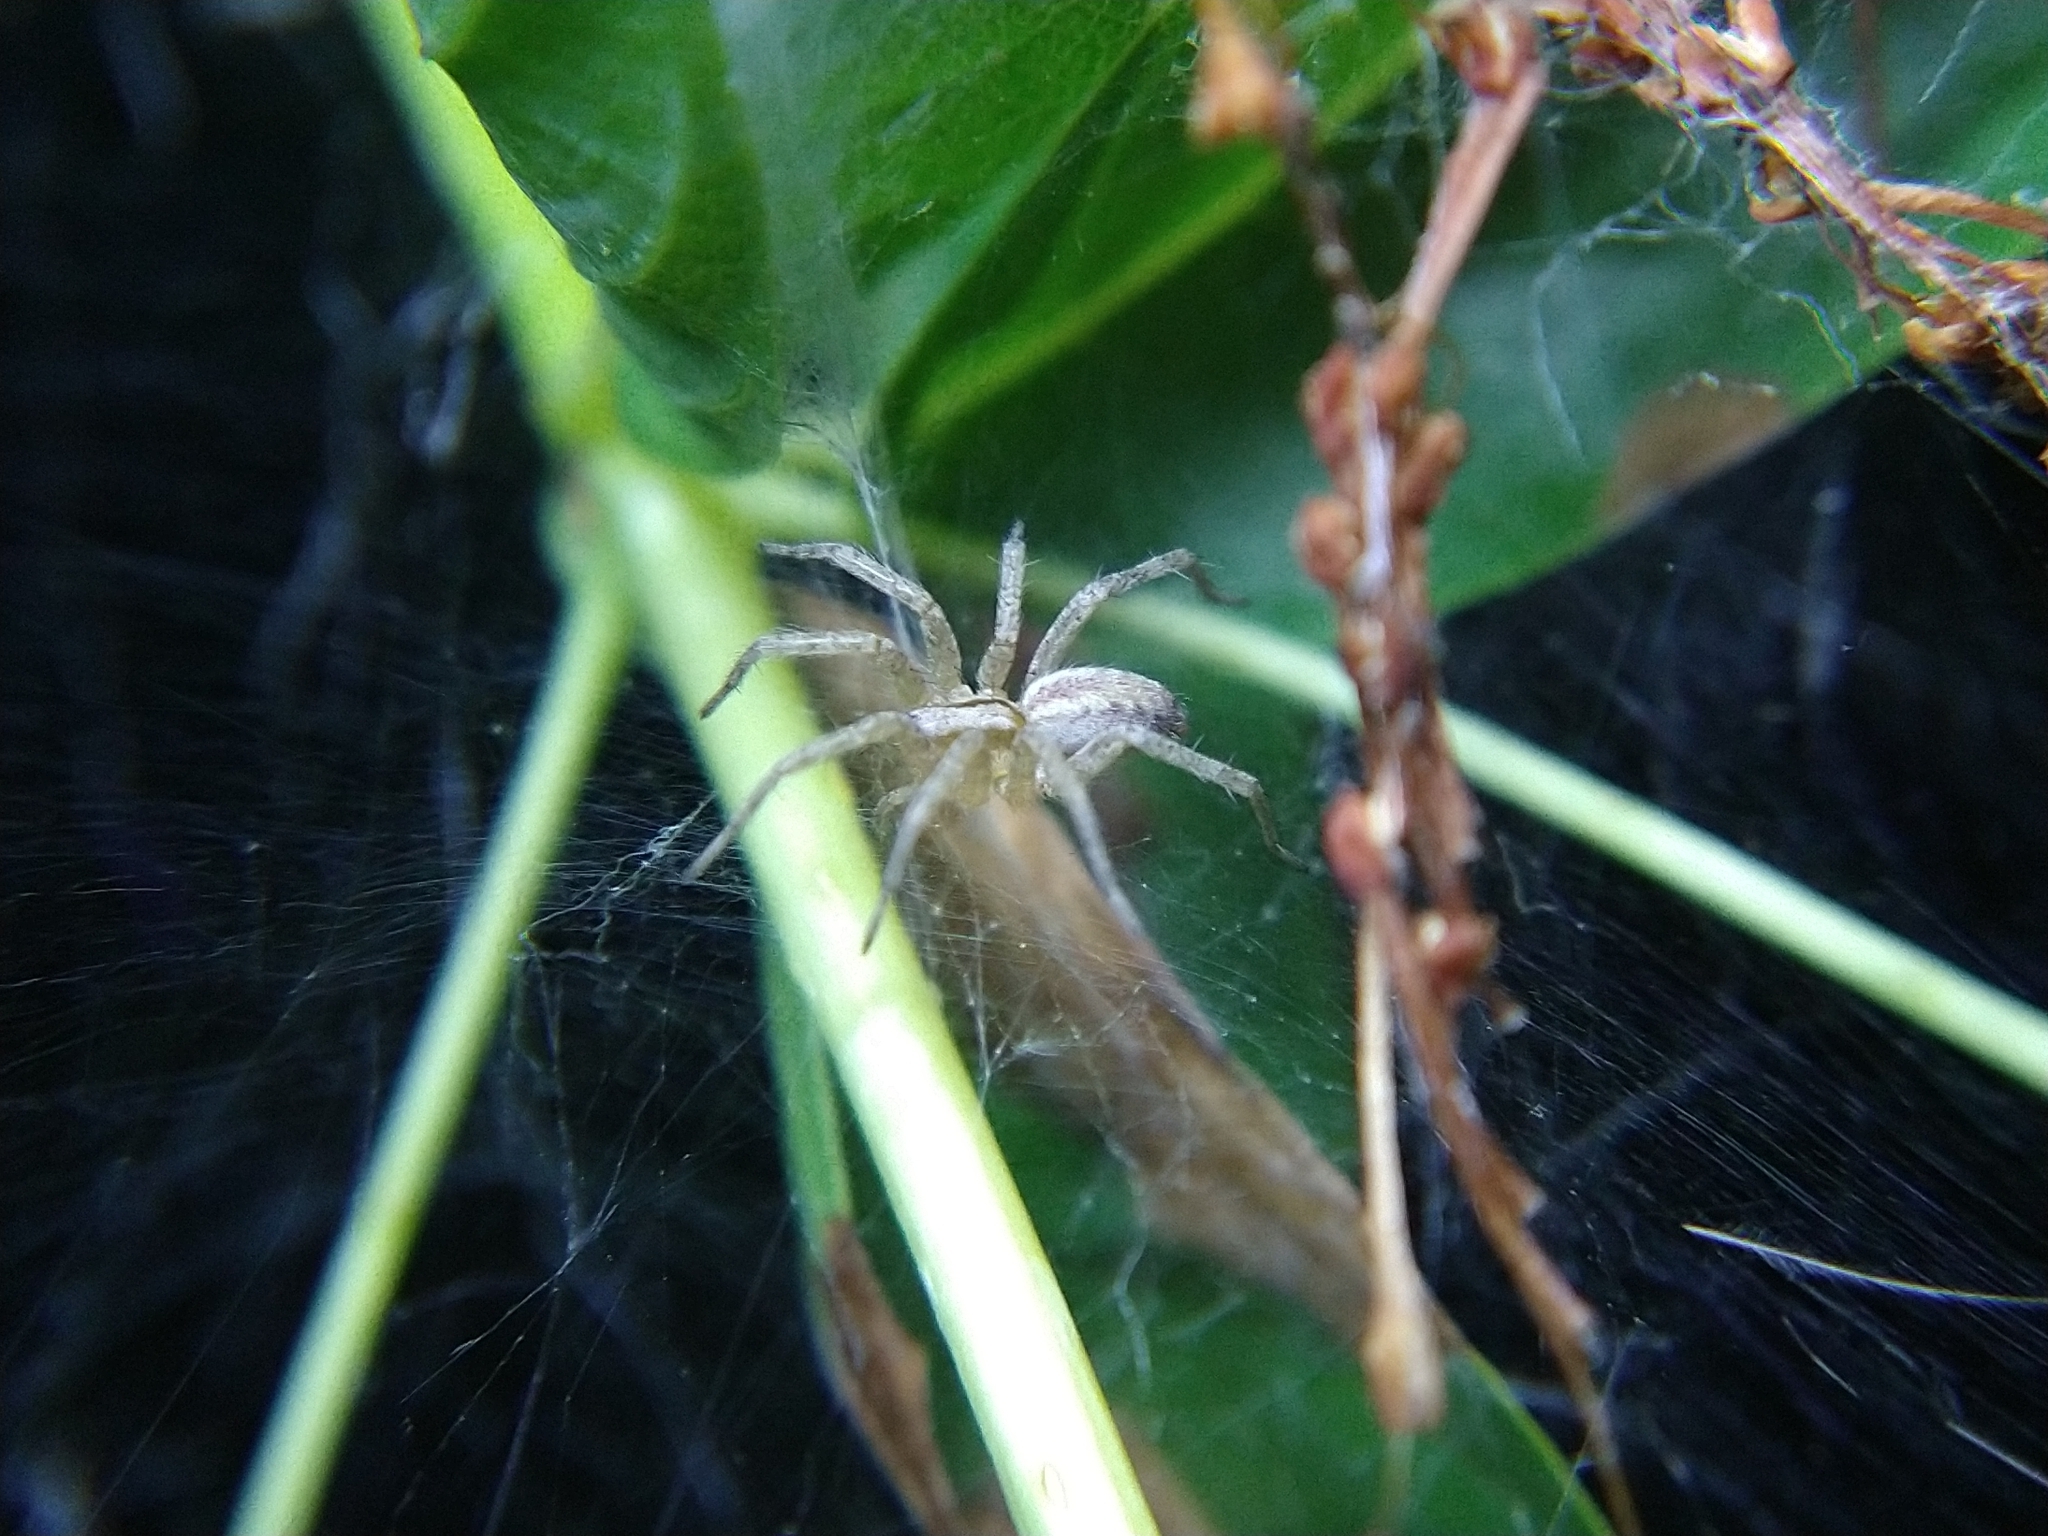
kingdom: Animalia
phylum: Arthropoda
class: Arachnida
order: Araneae
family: Agelenidae
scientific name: Agelenidae
